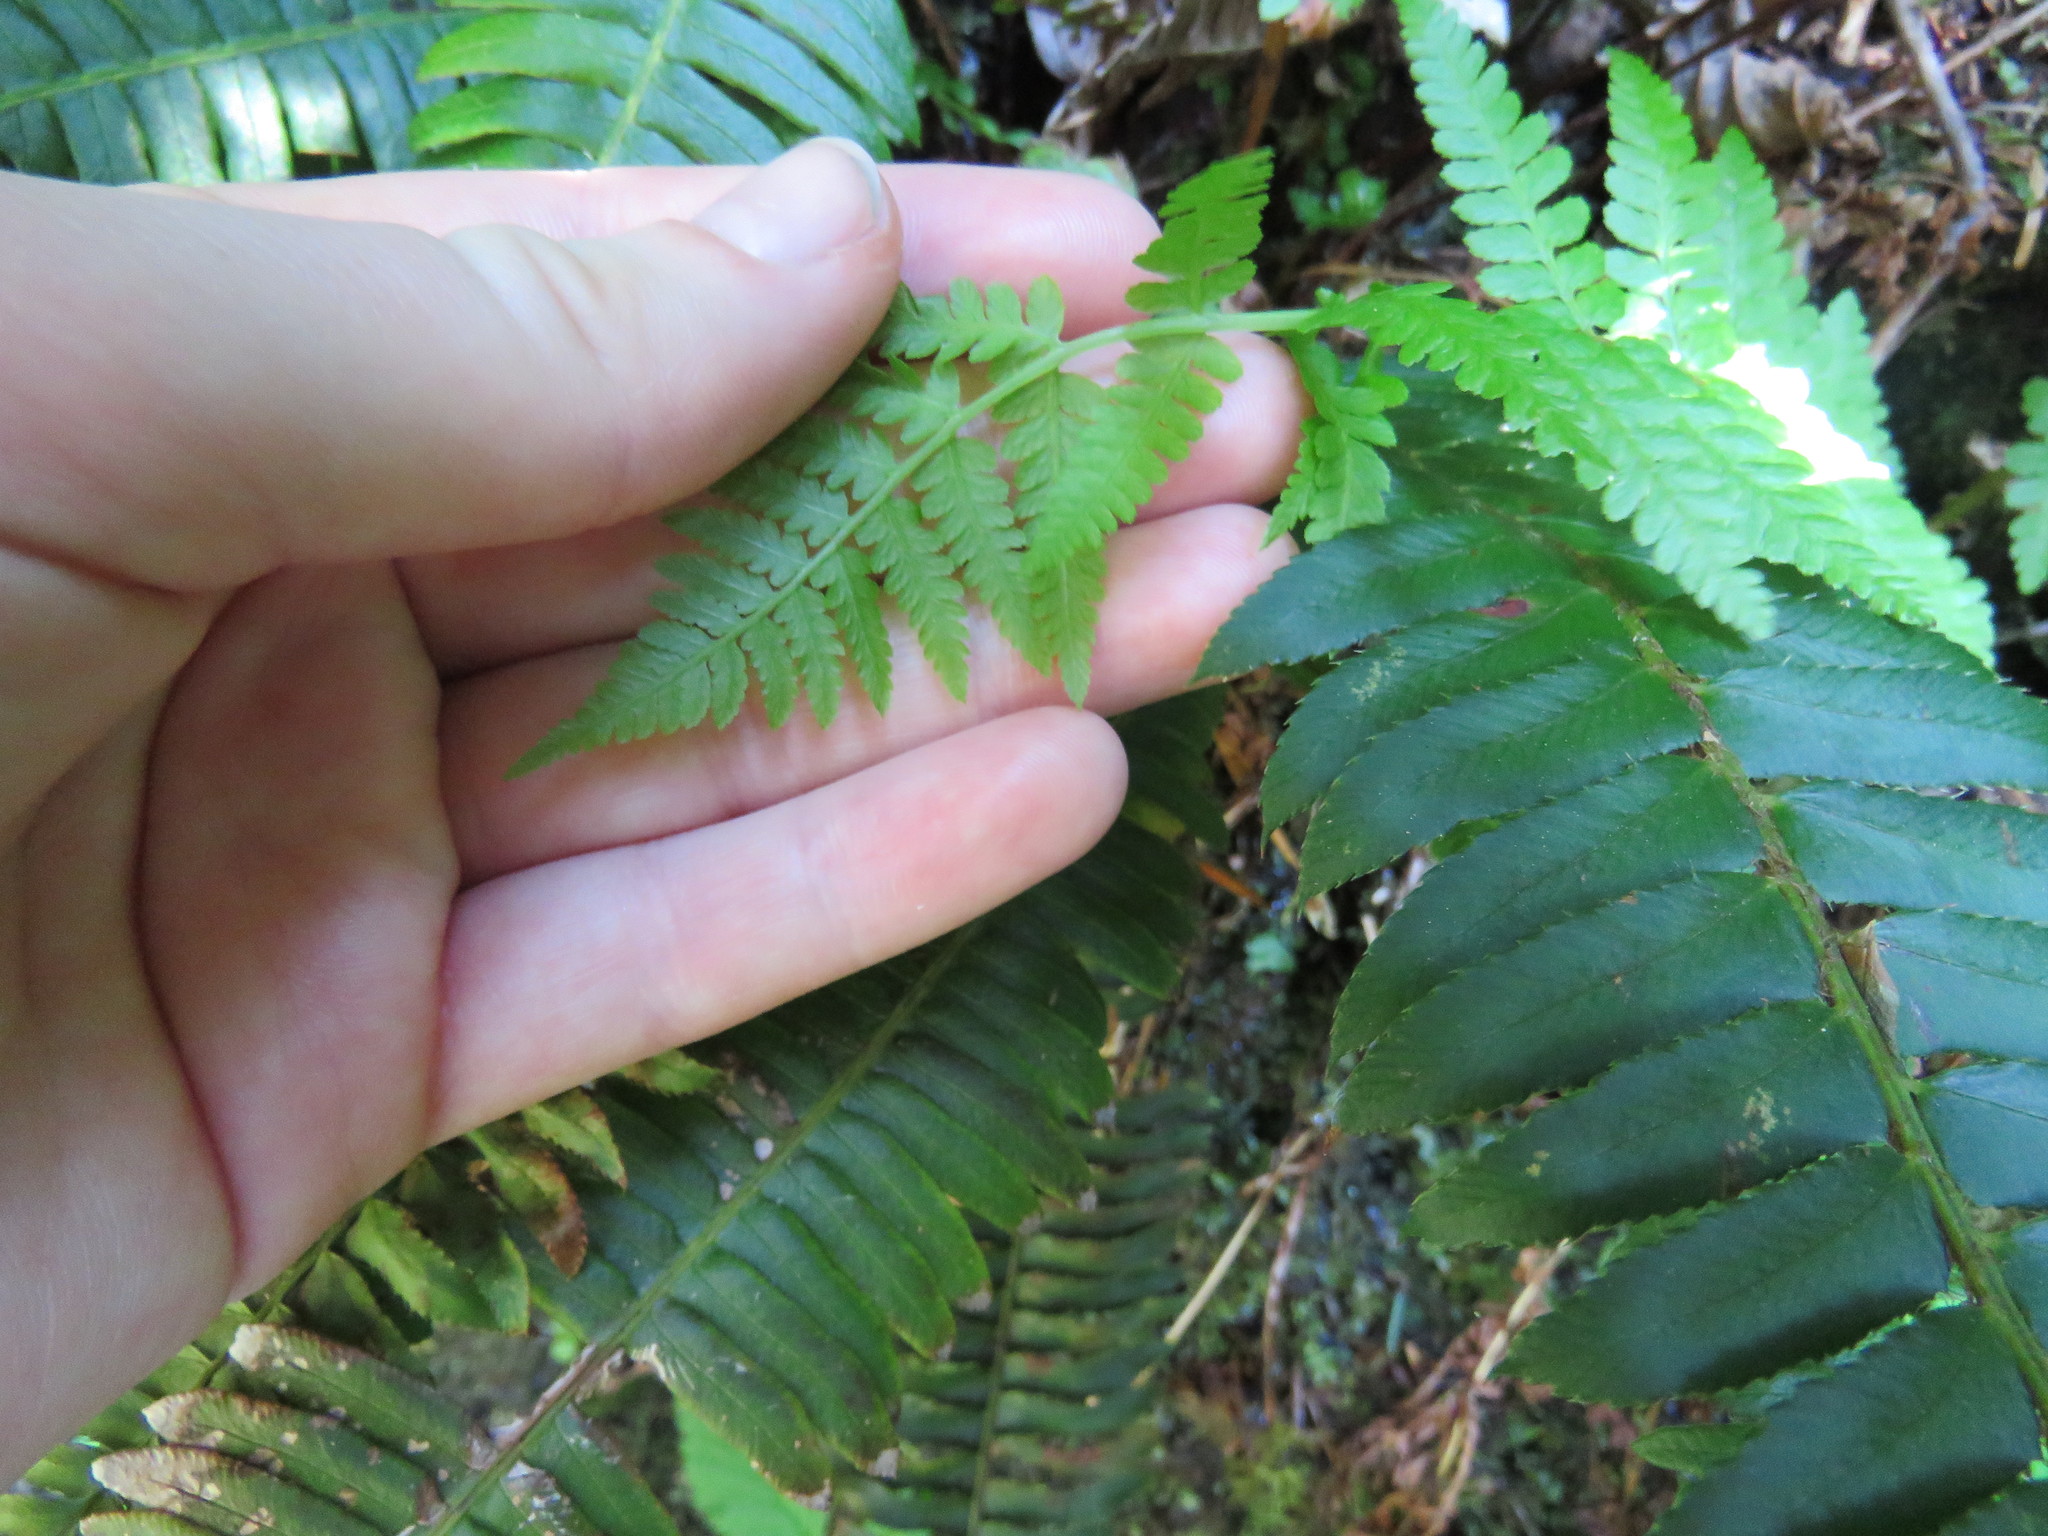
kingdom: Plantae
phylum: Tracheophyta
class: Polypodiopsida
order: Polypodiales
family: Athyriaceae
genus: Athyrium
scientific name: Athyrium filix-femina
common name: Lady fern
